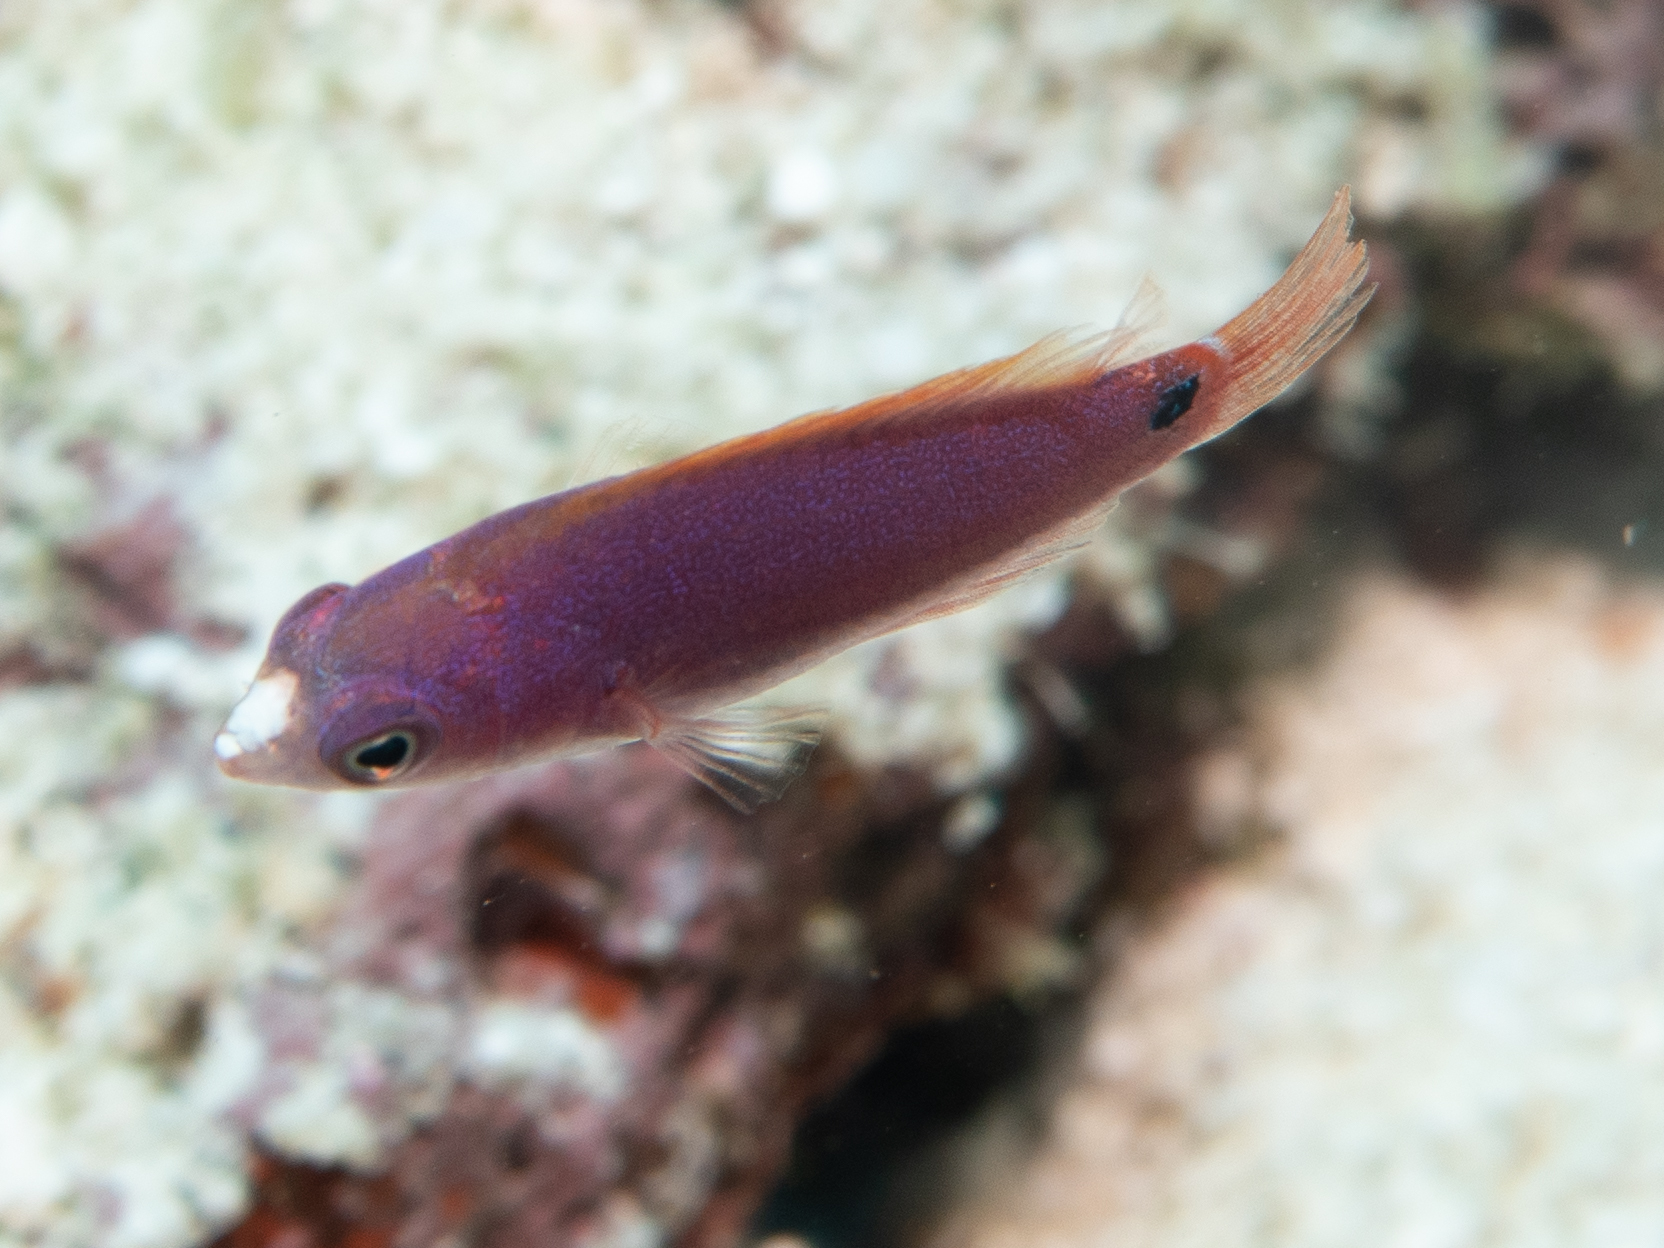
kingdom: Animalia
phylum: Chordata
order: Perciformes
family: Labridae
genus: Cirrhilabrus
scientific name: Cirrhilabrus exquisitus
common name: Exquisite wrasse
